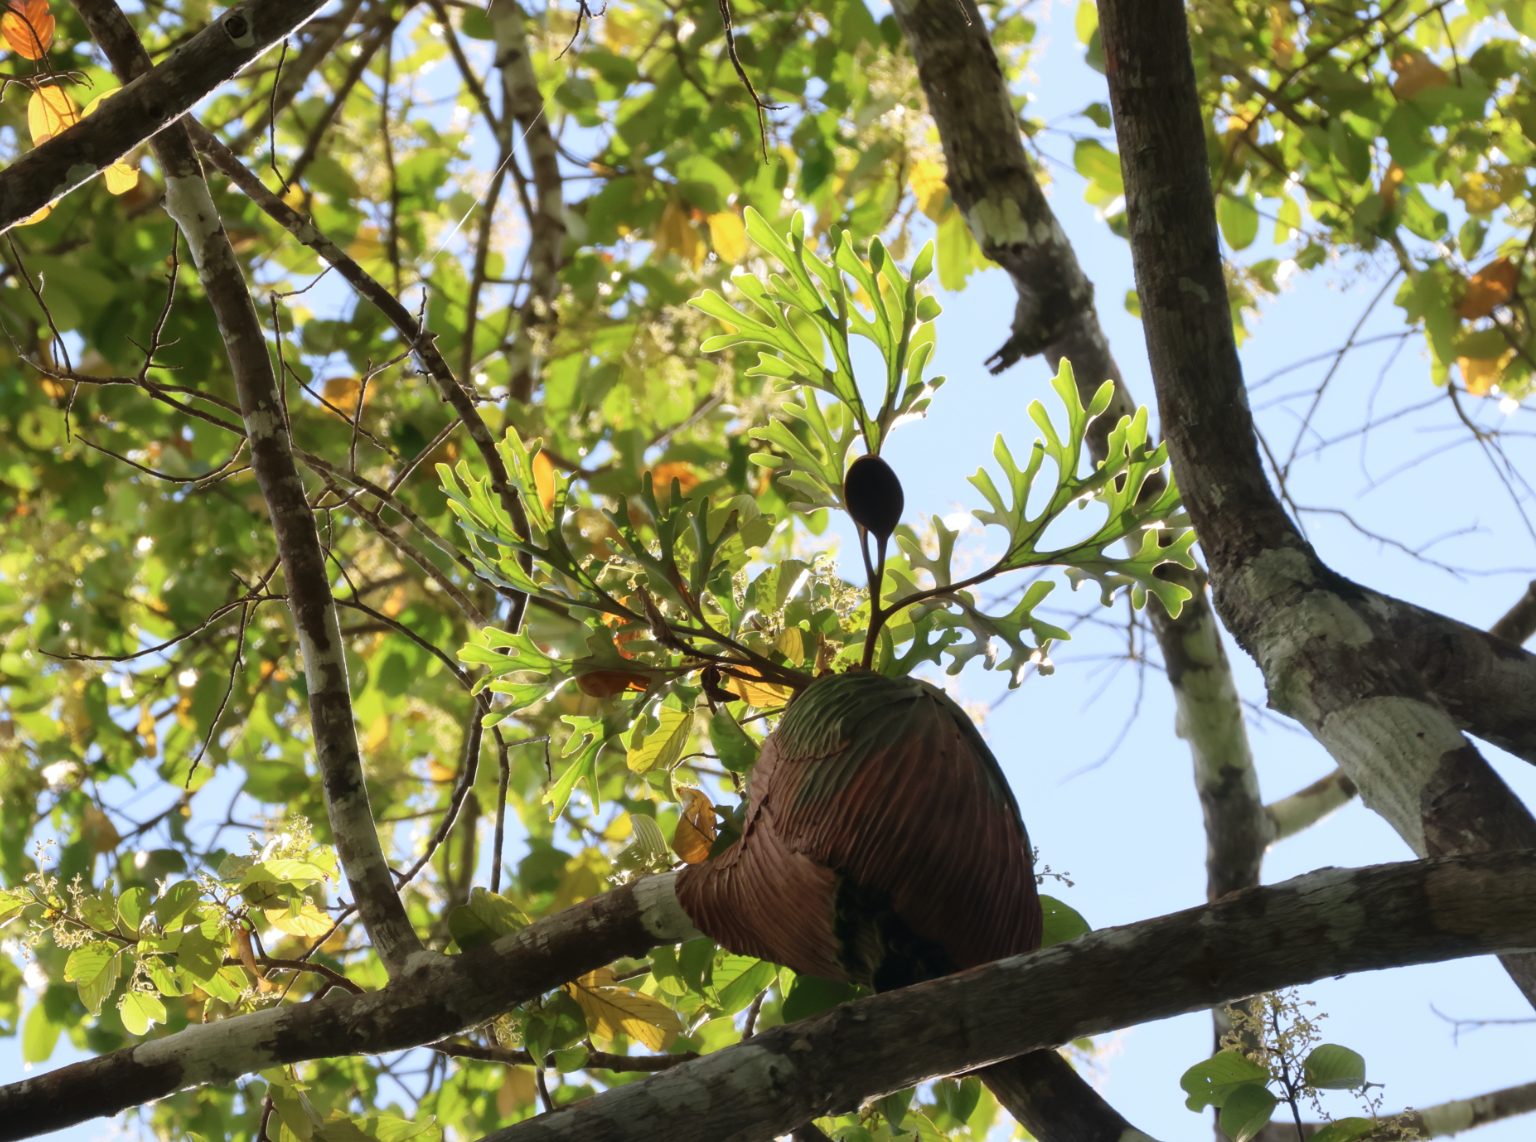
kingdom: Plantae
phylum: Tracheophyta
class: Polypodiopsida
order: Polypodiales
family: Polypodiaceae
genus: Platycerium
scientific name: Platycerium ridleyi
